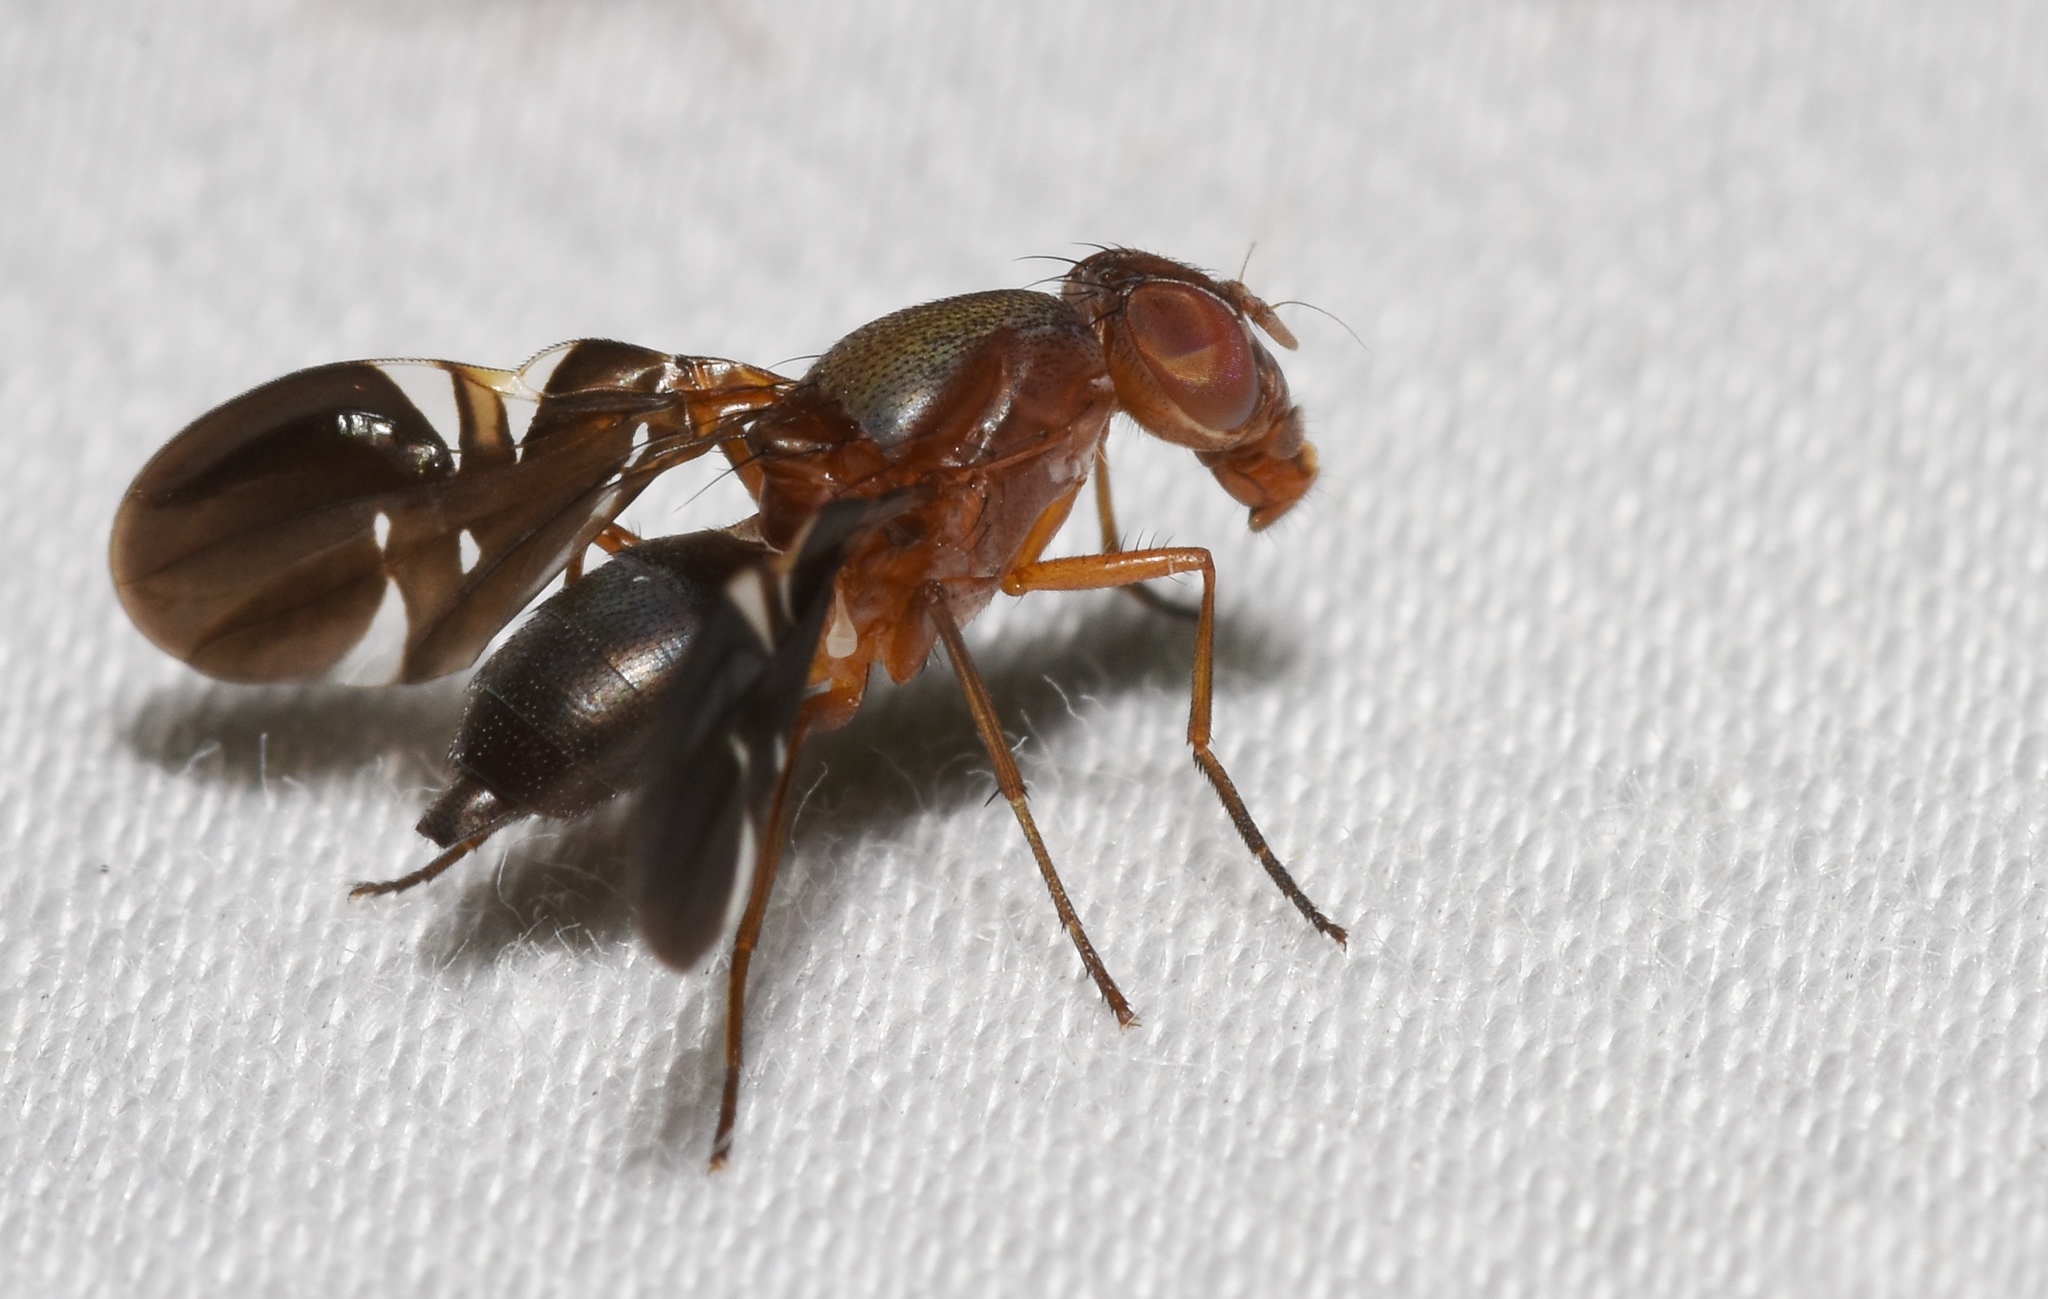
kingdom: Animalia
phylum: Arthropoda
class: Insecta
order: Diptera
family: Ulidiidae
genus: Delphinia
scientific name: Delphinia picta
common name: Common picture-winged fly
